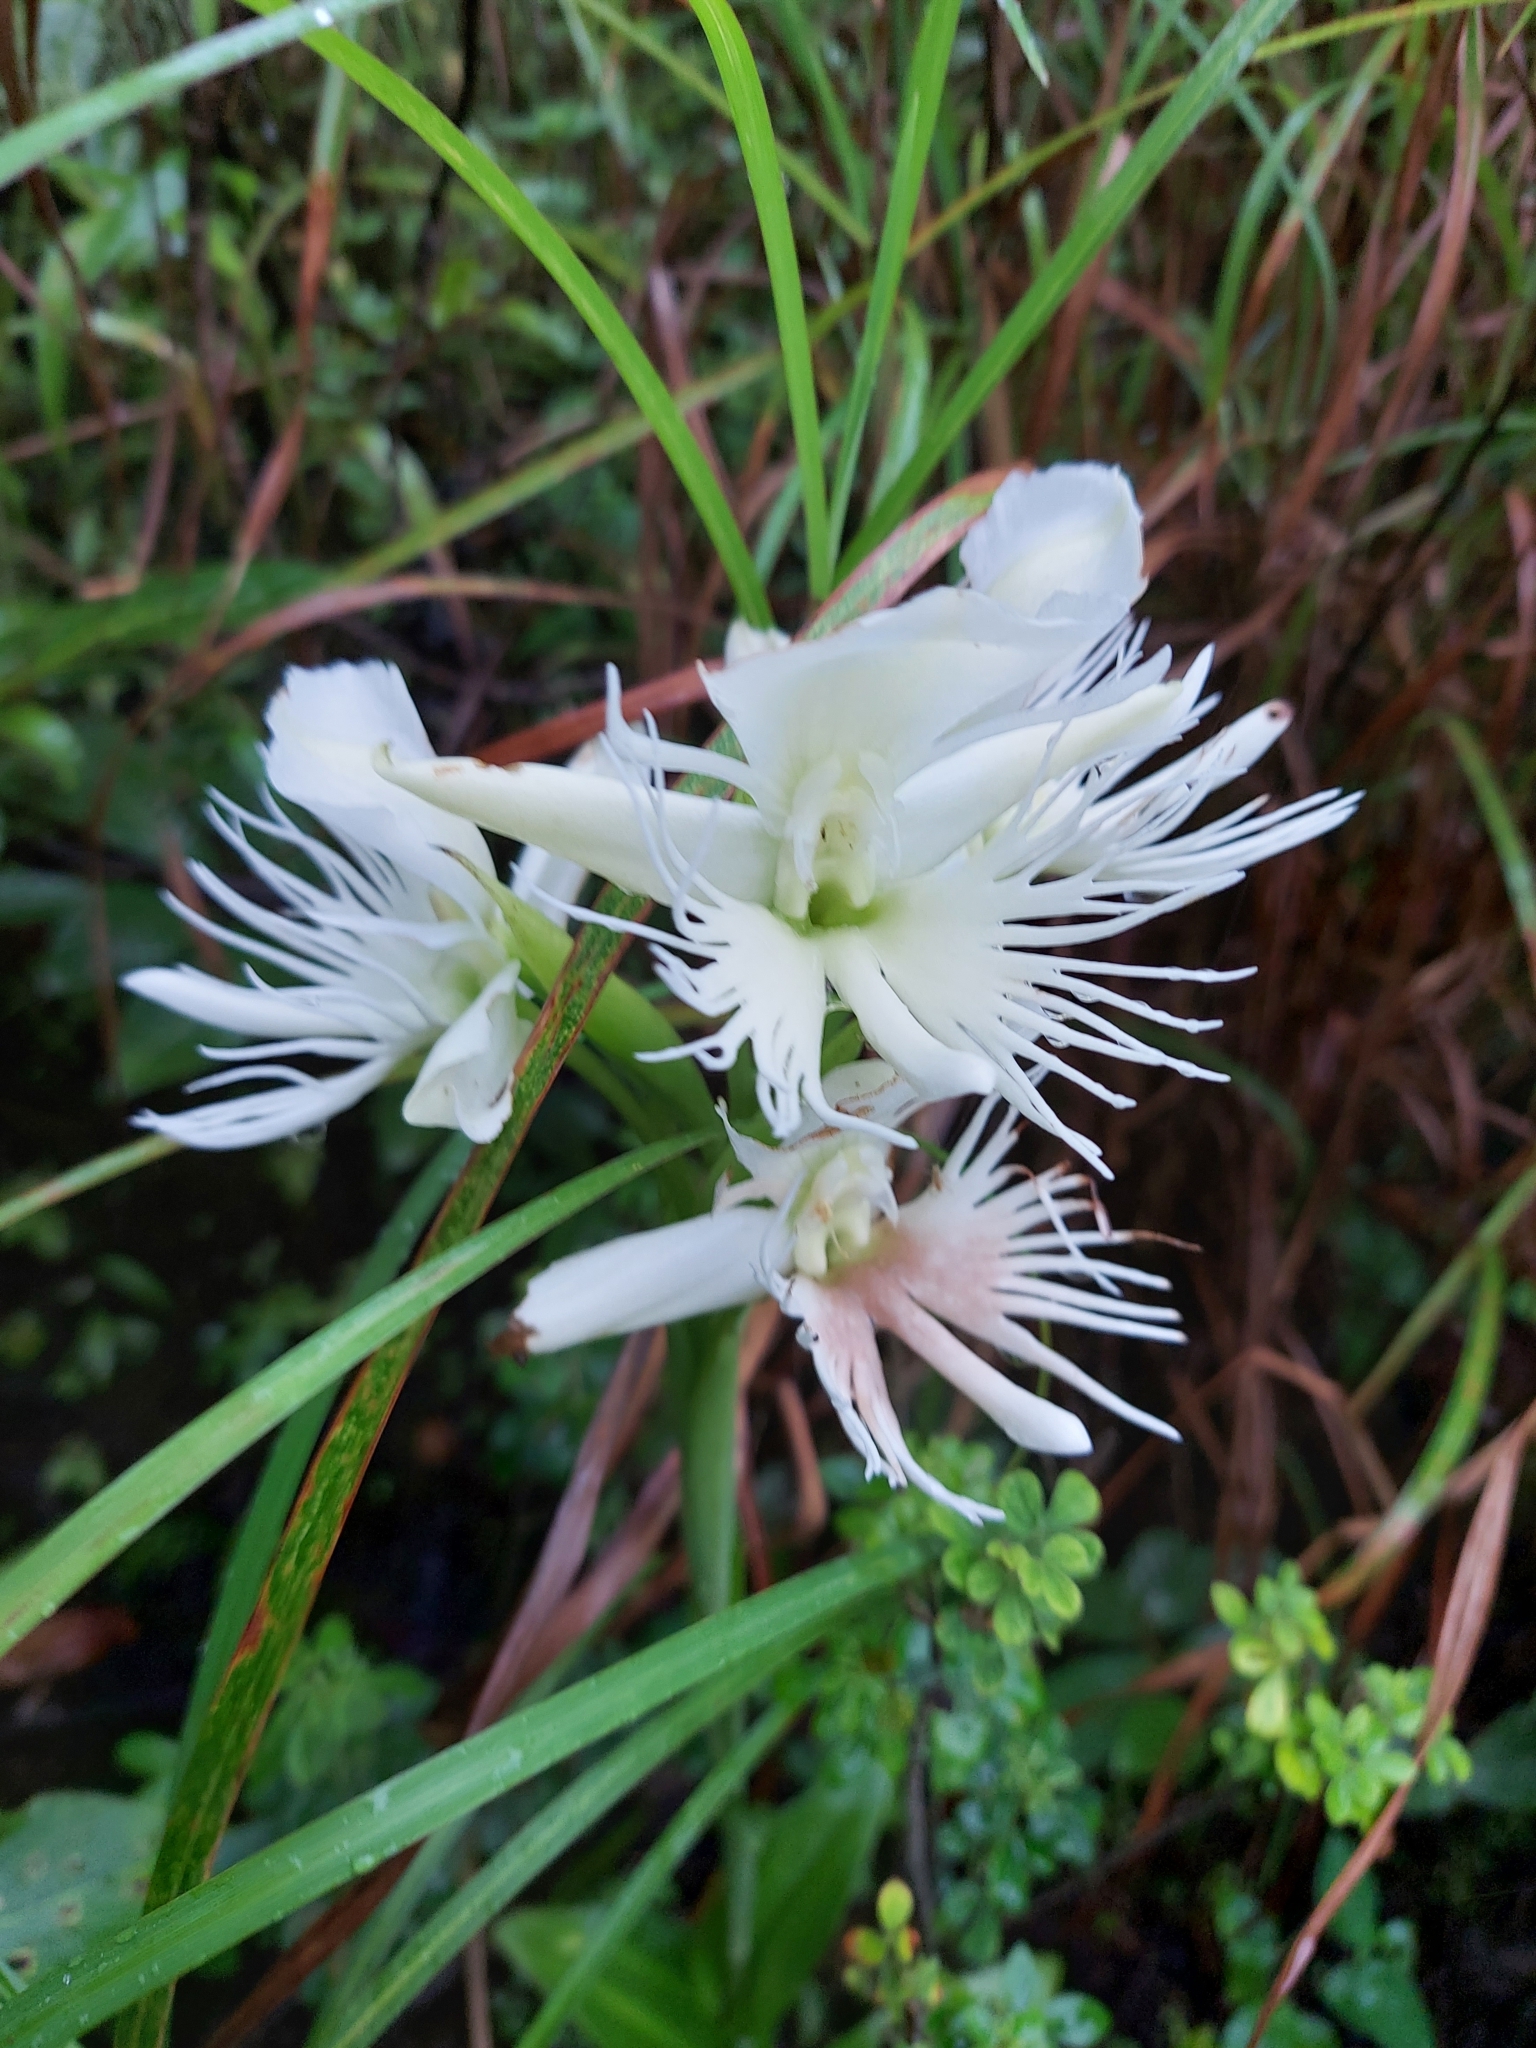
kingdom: Plantae
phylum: Tracheophyta
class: Liliopsida
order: Asparagales
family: Orchidaceae
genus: Pecteilis
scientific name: Pecteilis gigantea
